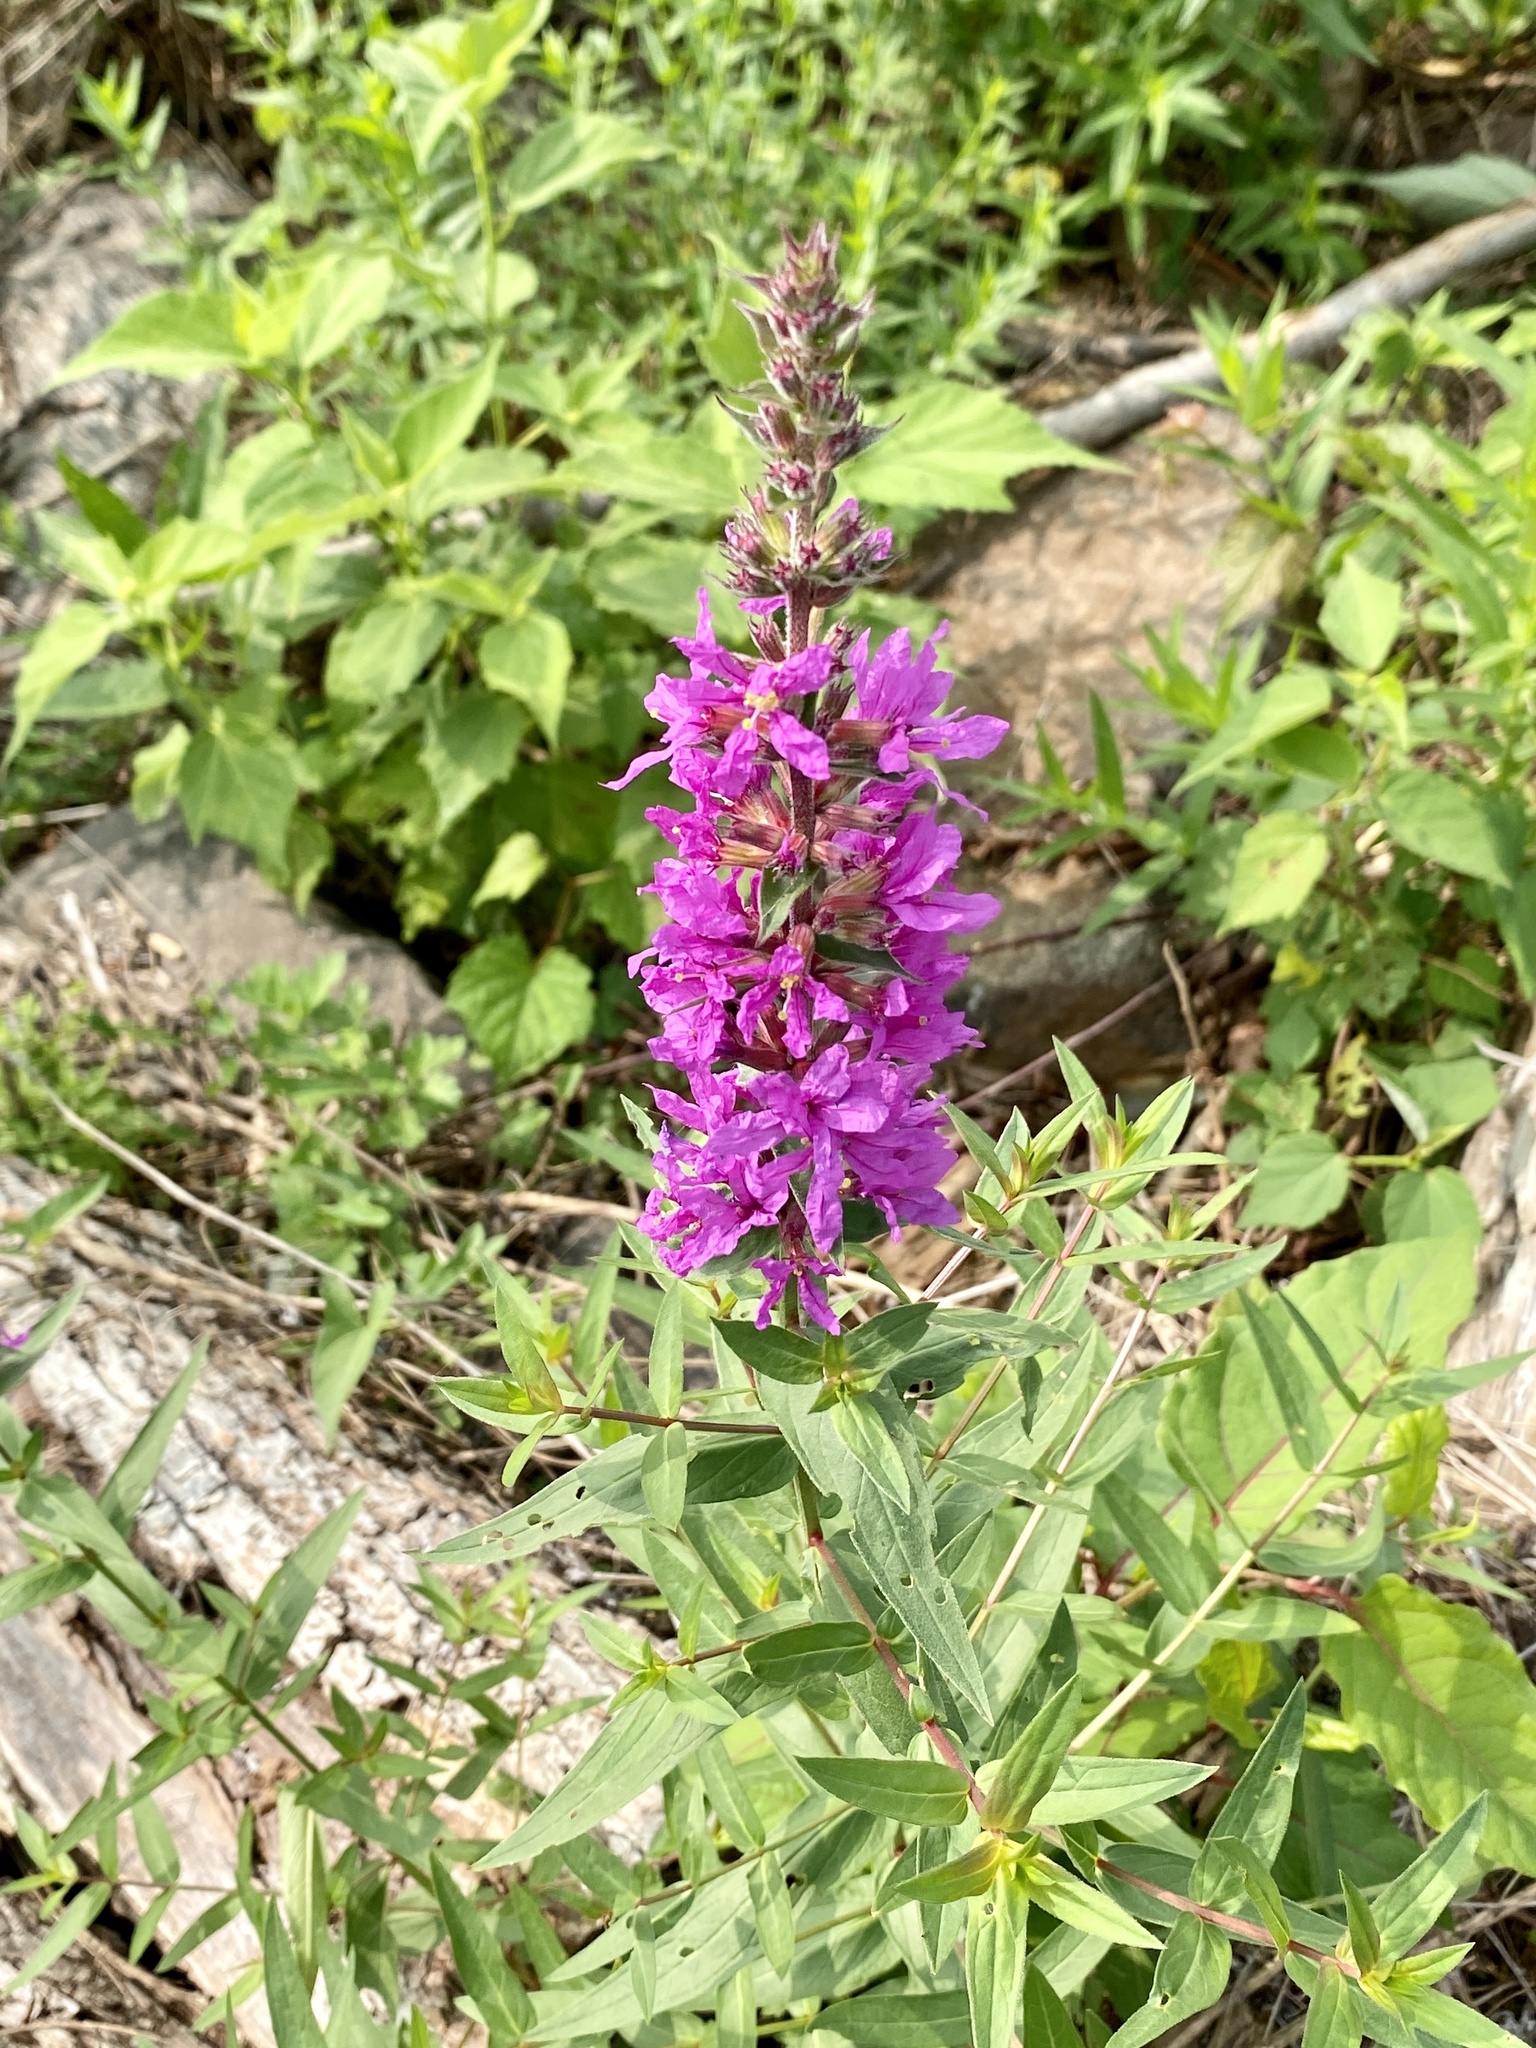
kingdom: Plantae
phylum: Tracheophyta
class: Magnoliopsida
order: Myrtales
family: Lythraceae
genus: Lythrum
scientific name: Lythrum salicaria
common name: Purple loosestrife
